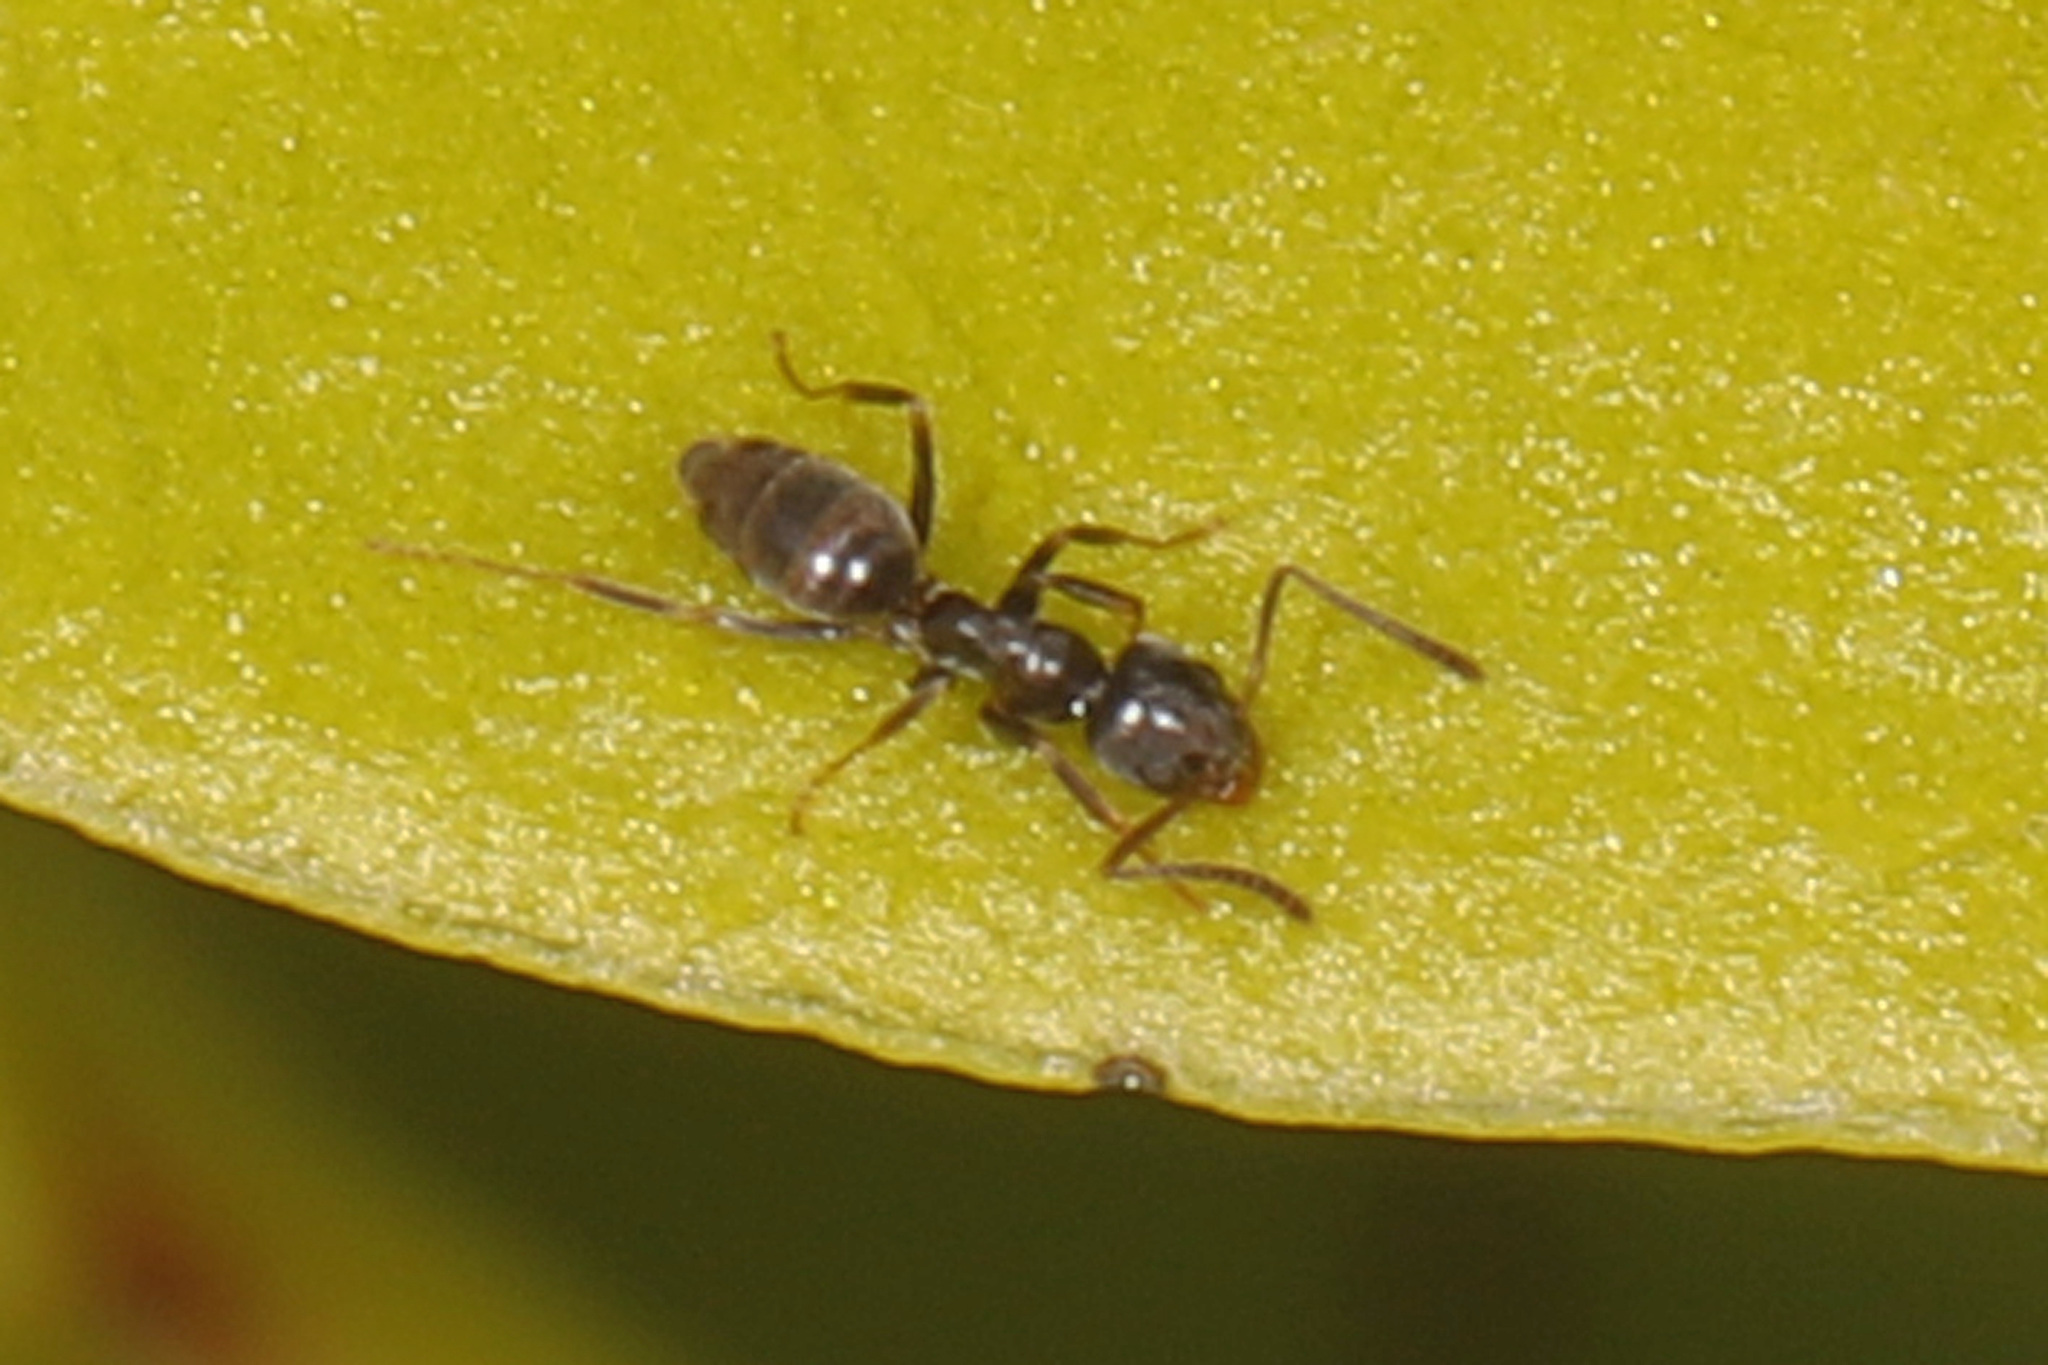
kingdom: Animalia
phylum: Arthropoda
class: Insecta
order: Hymenoptera
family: Formicidae
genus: Tapinoma
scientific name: Tapinoma sessile
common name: Odorous house ant
